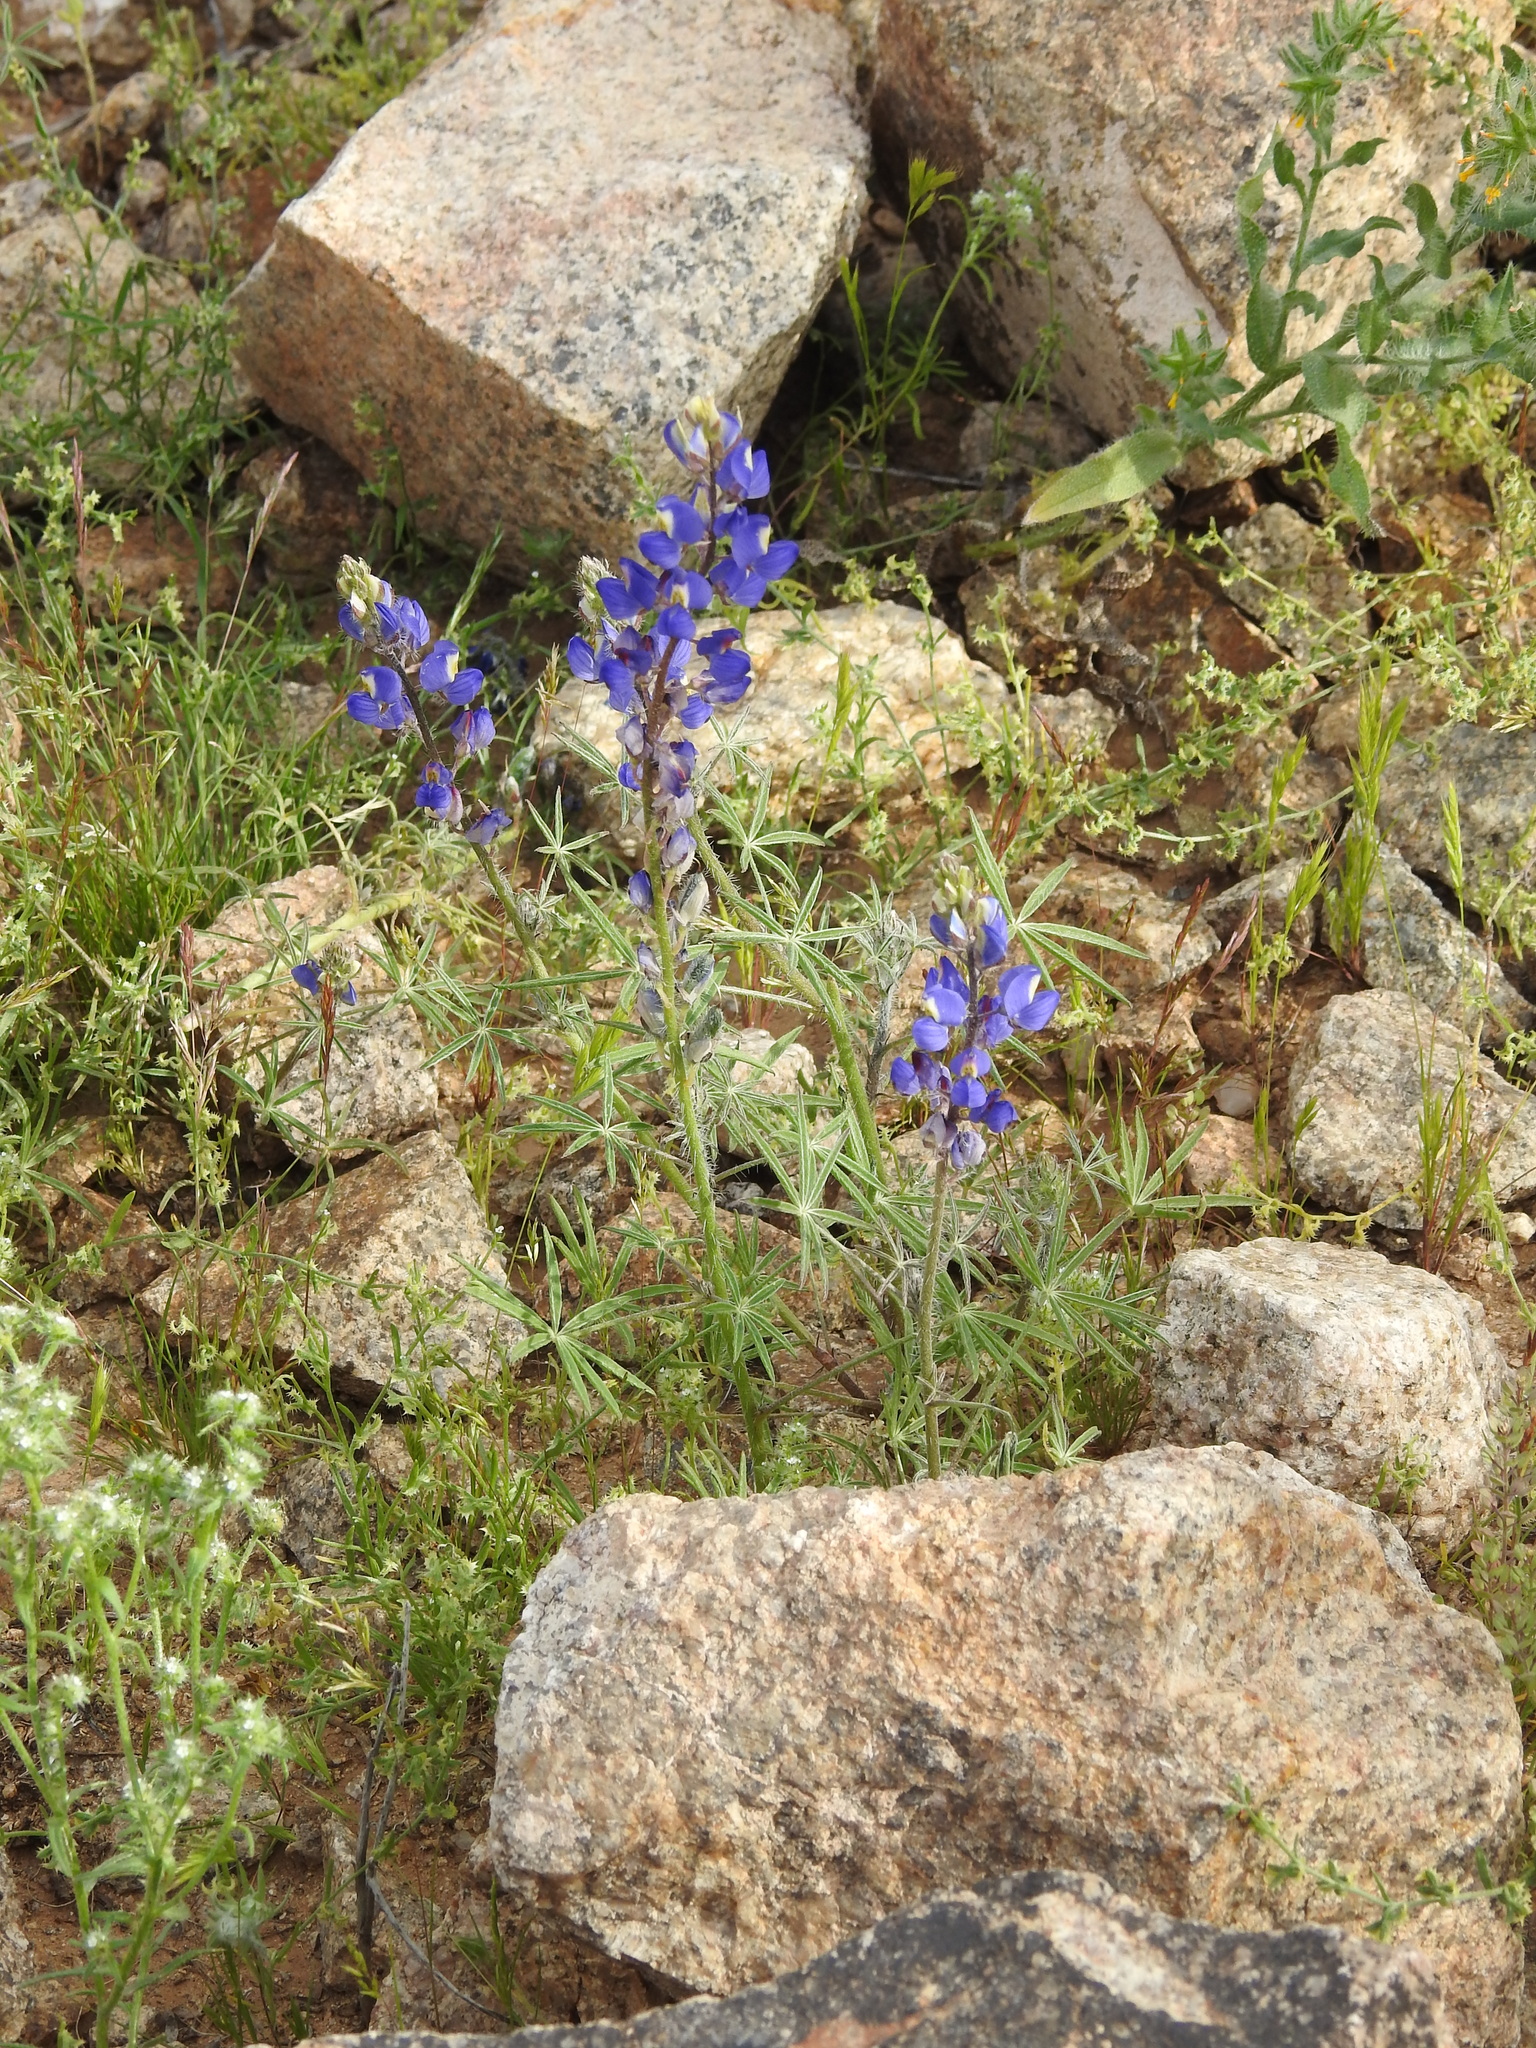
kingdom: Plantae
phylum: Tracheophyta
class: Magnoliopsida
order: Fabales
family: Fabaceae
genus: Lupinus
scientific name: Lupinus sparsiflorus
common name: Coulter's lupine
